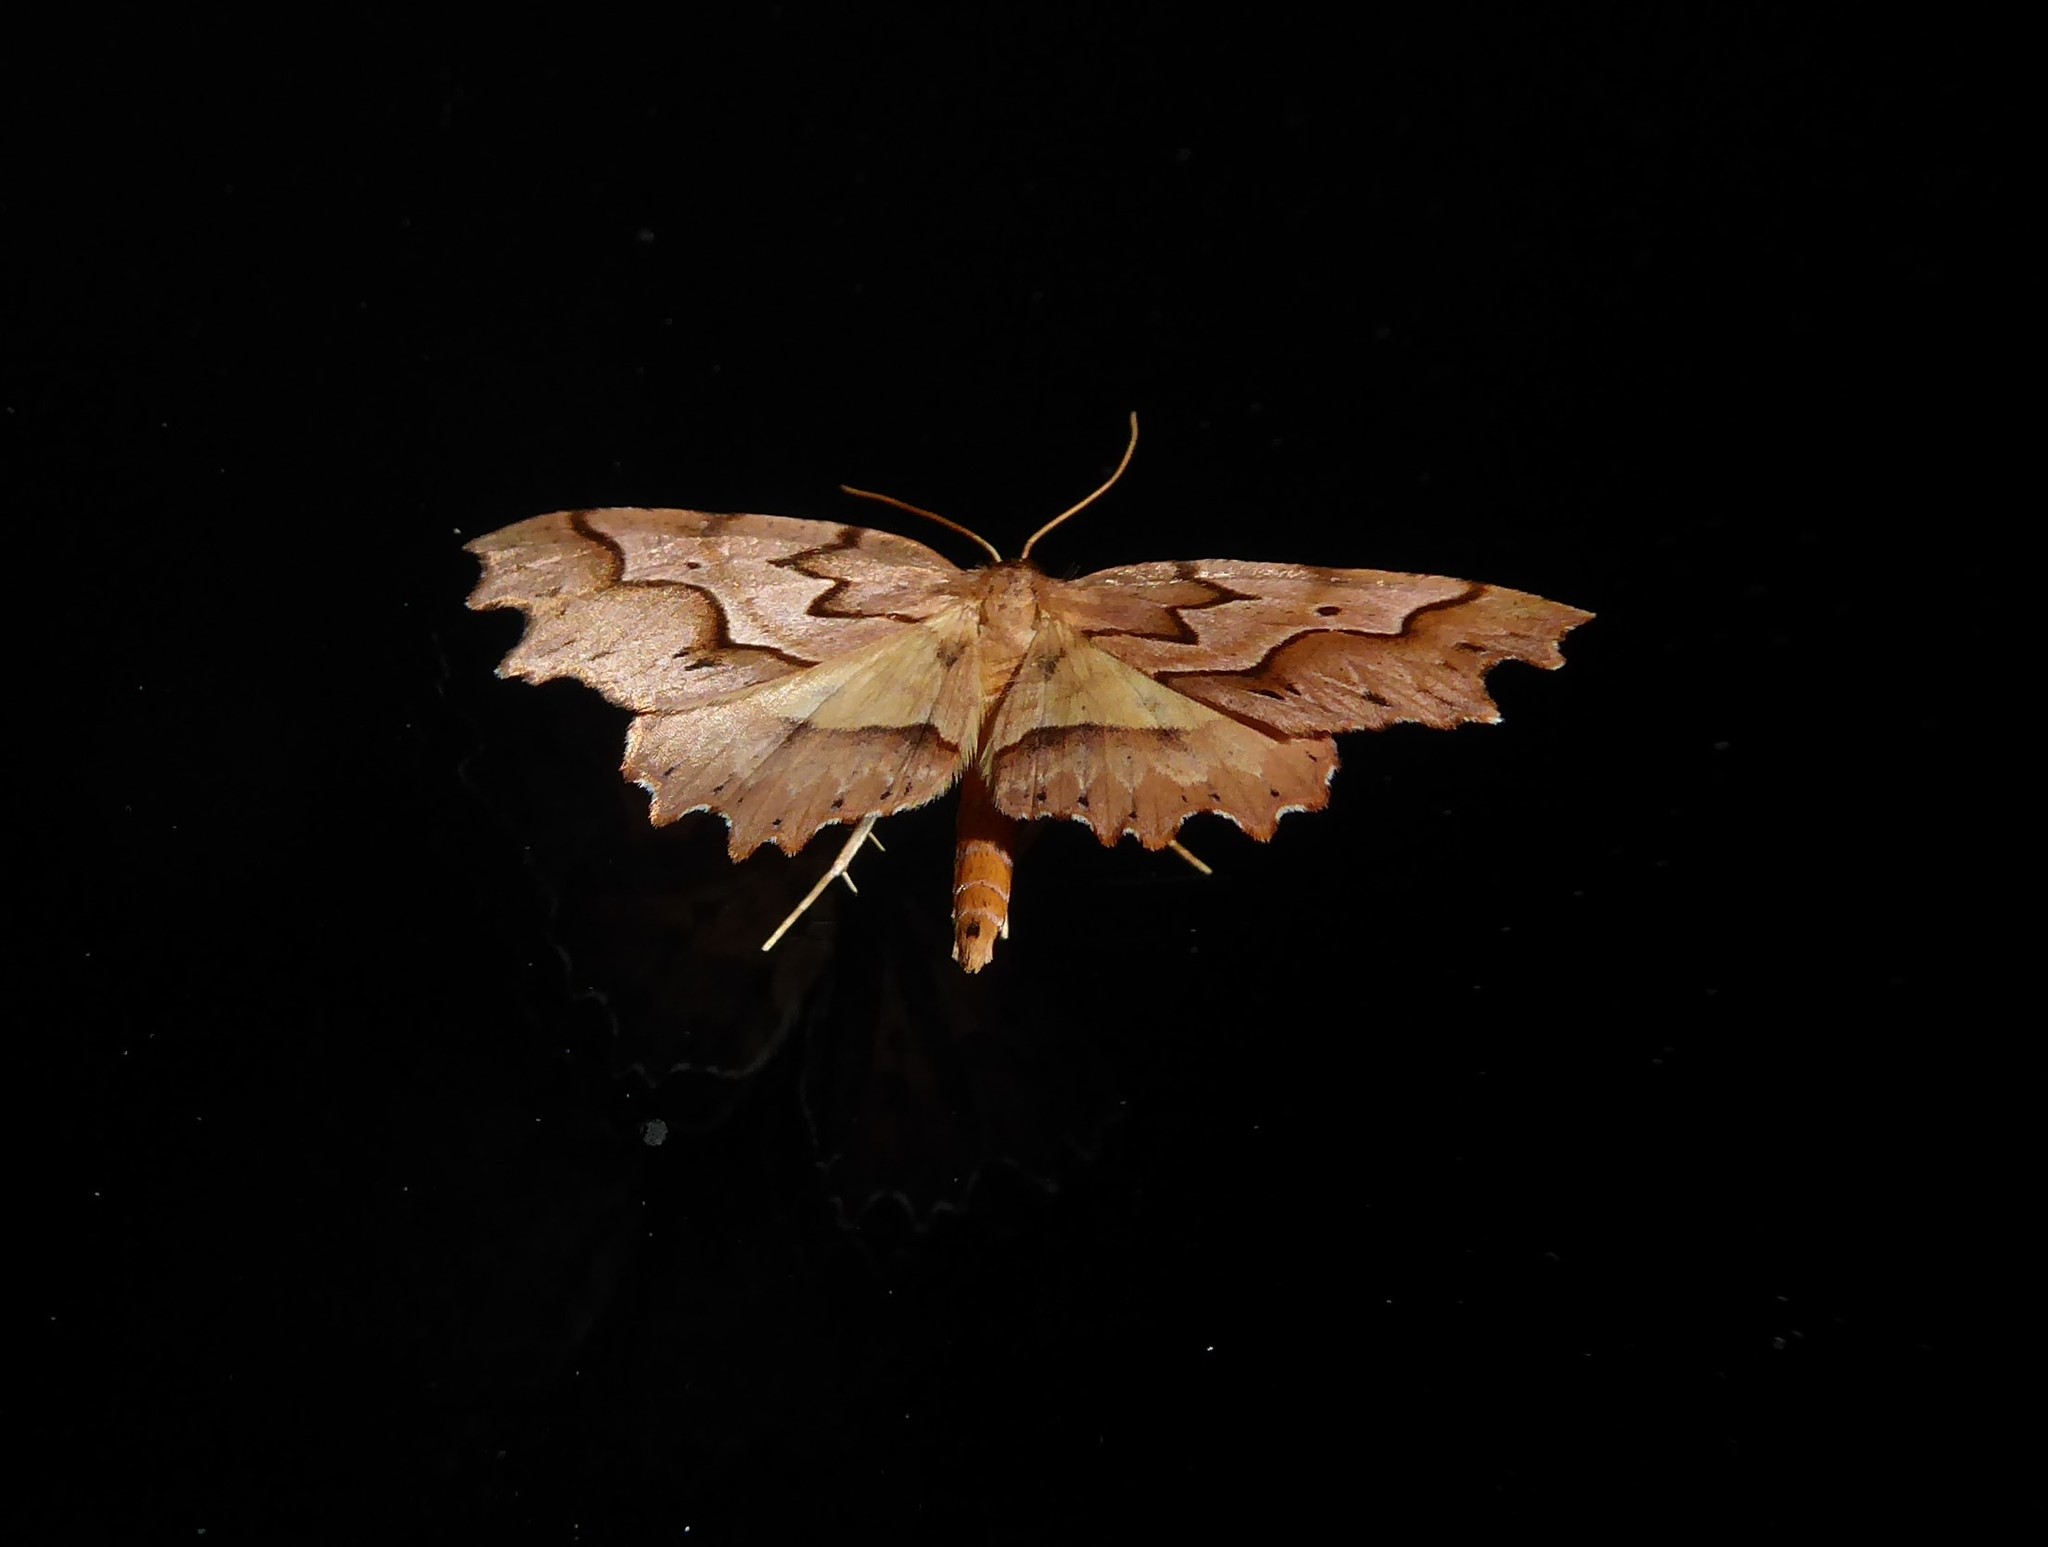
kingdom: Animalia
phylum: Arthropoda
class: Insecta
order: Lepidoptera
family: Geometridae
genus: Ischalis
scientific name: Ischalis fortinata
